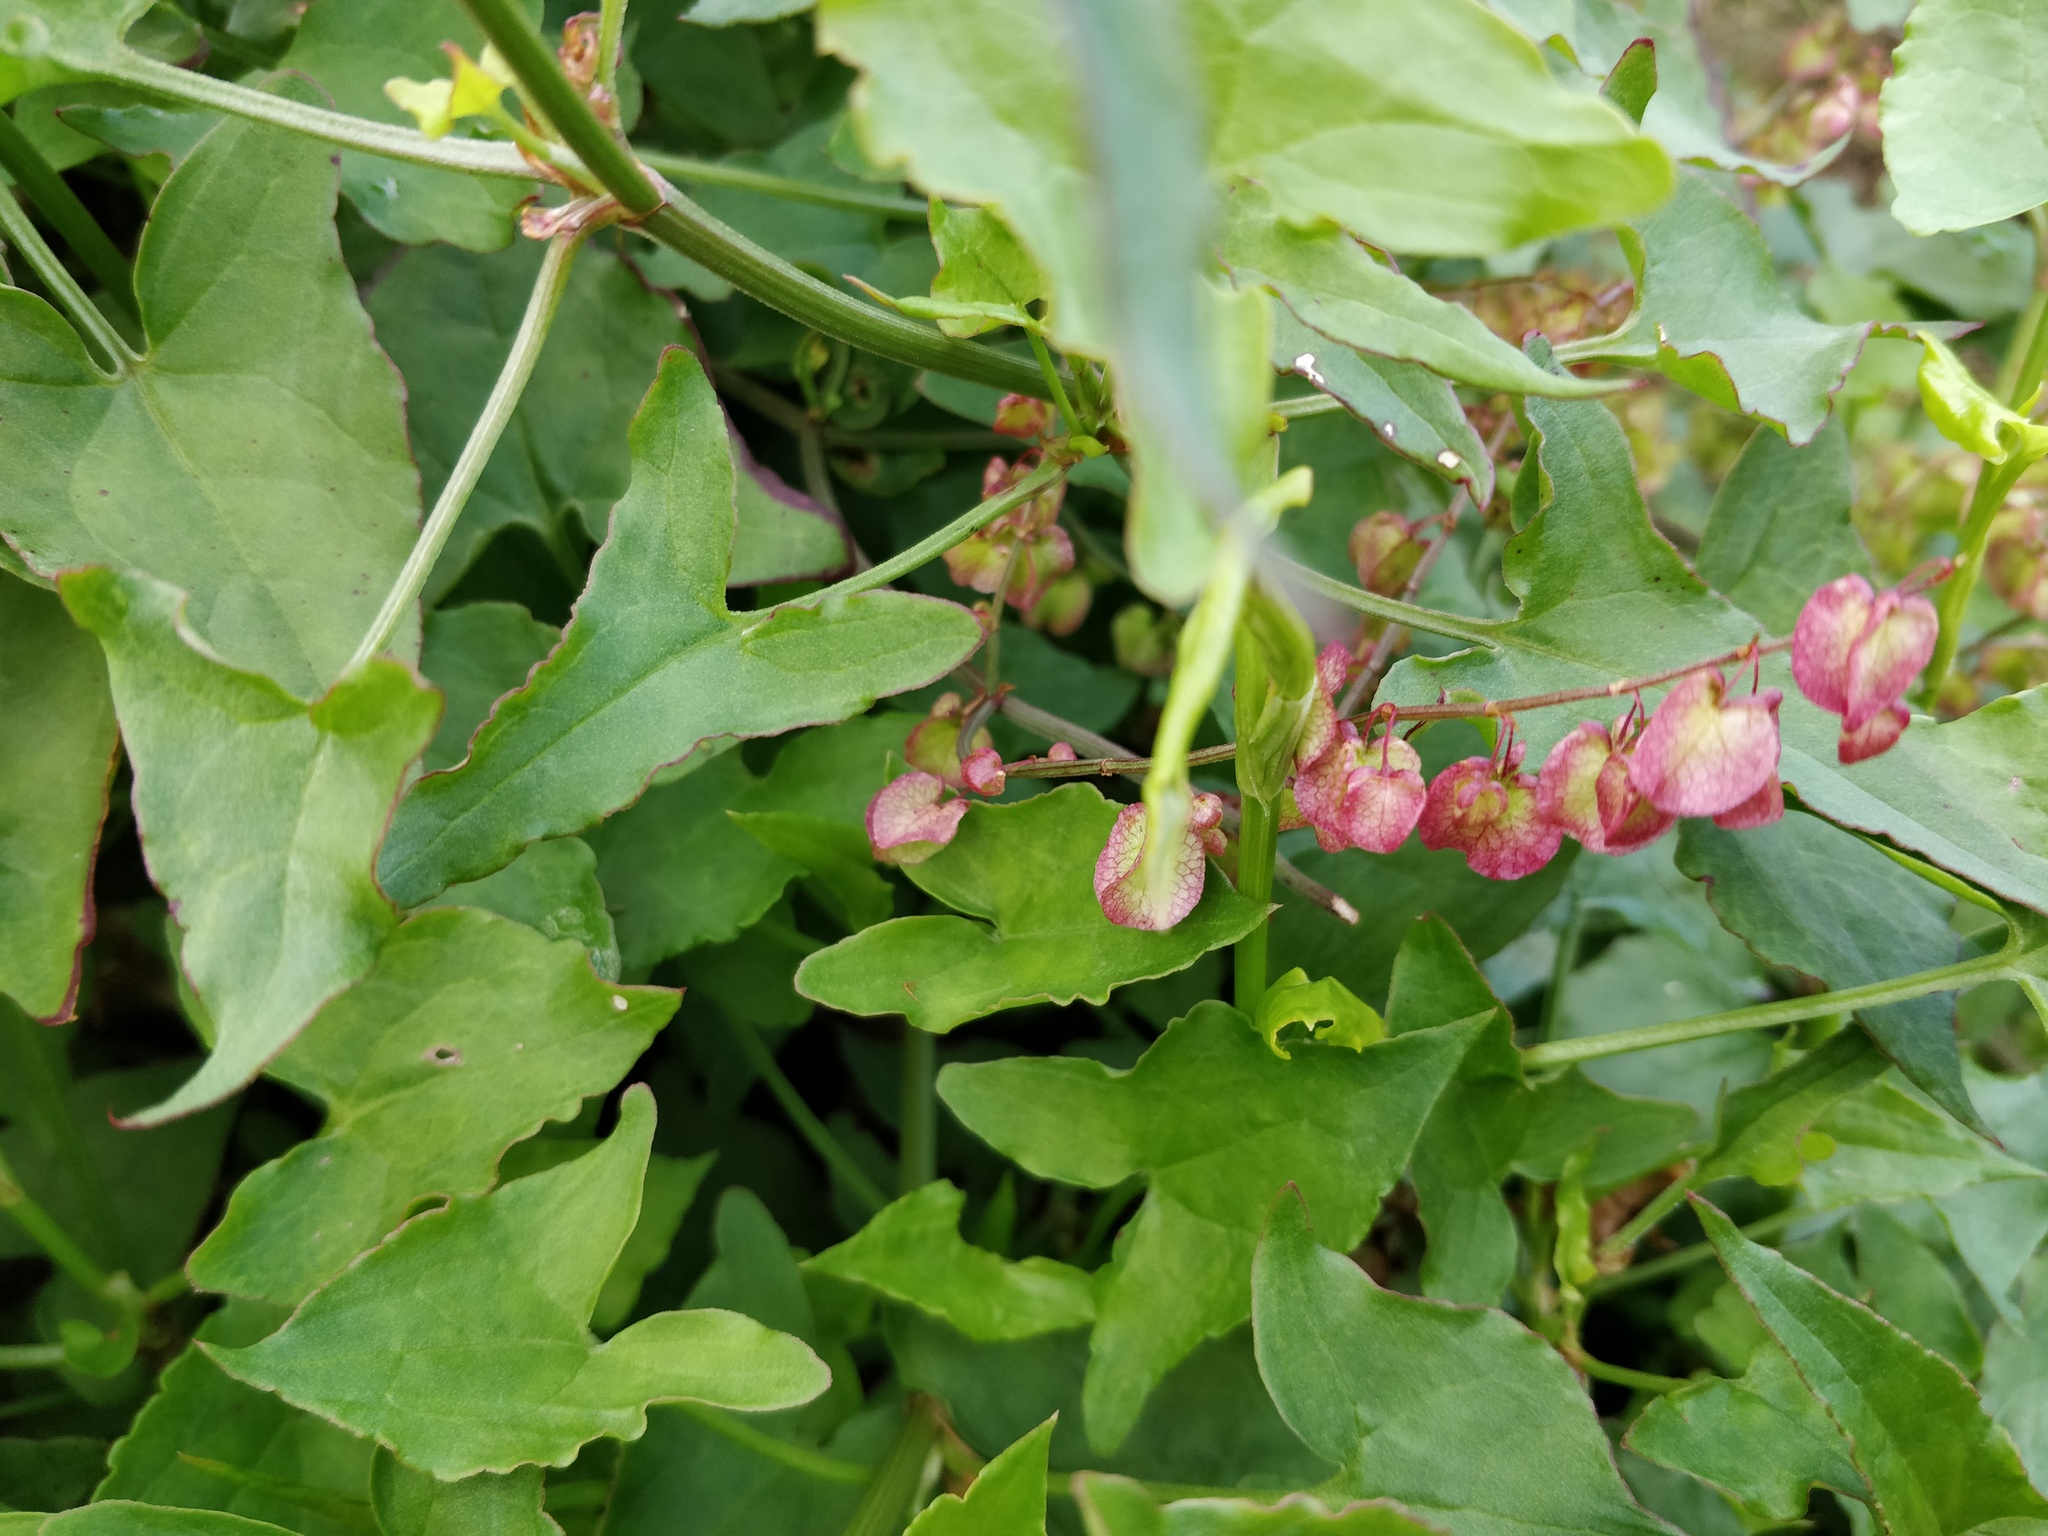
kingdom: Plantae
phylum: Tracheophyta
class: Magnoliopsida
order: Caryophyllales
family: Polygonaceae
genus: Rumex
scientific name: Rumex sagittatus
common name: Climbing dock
